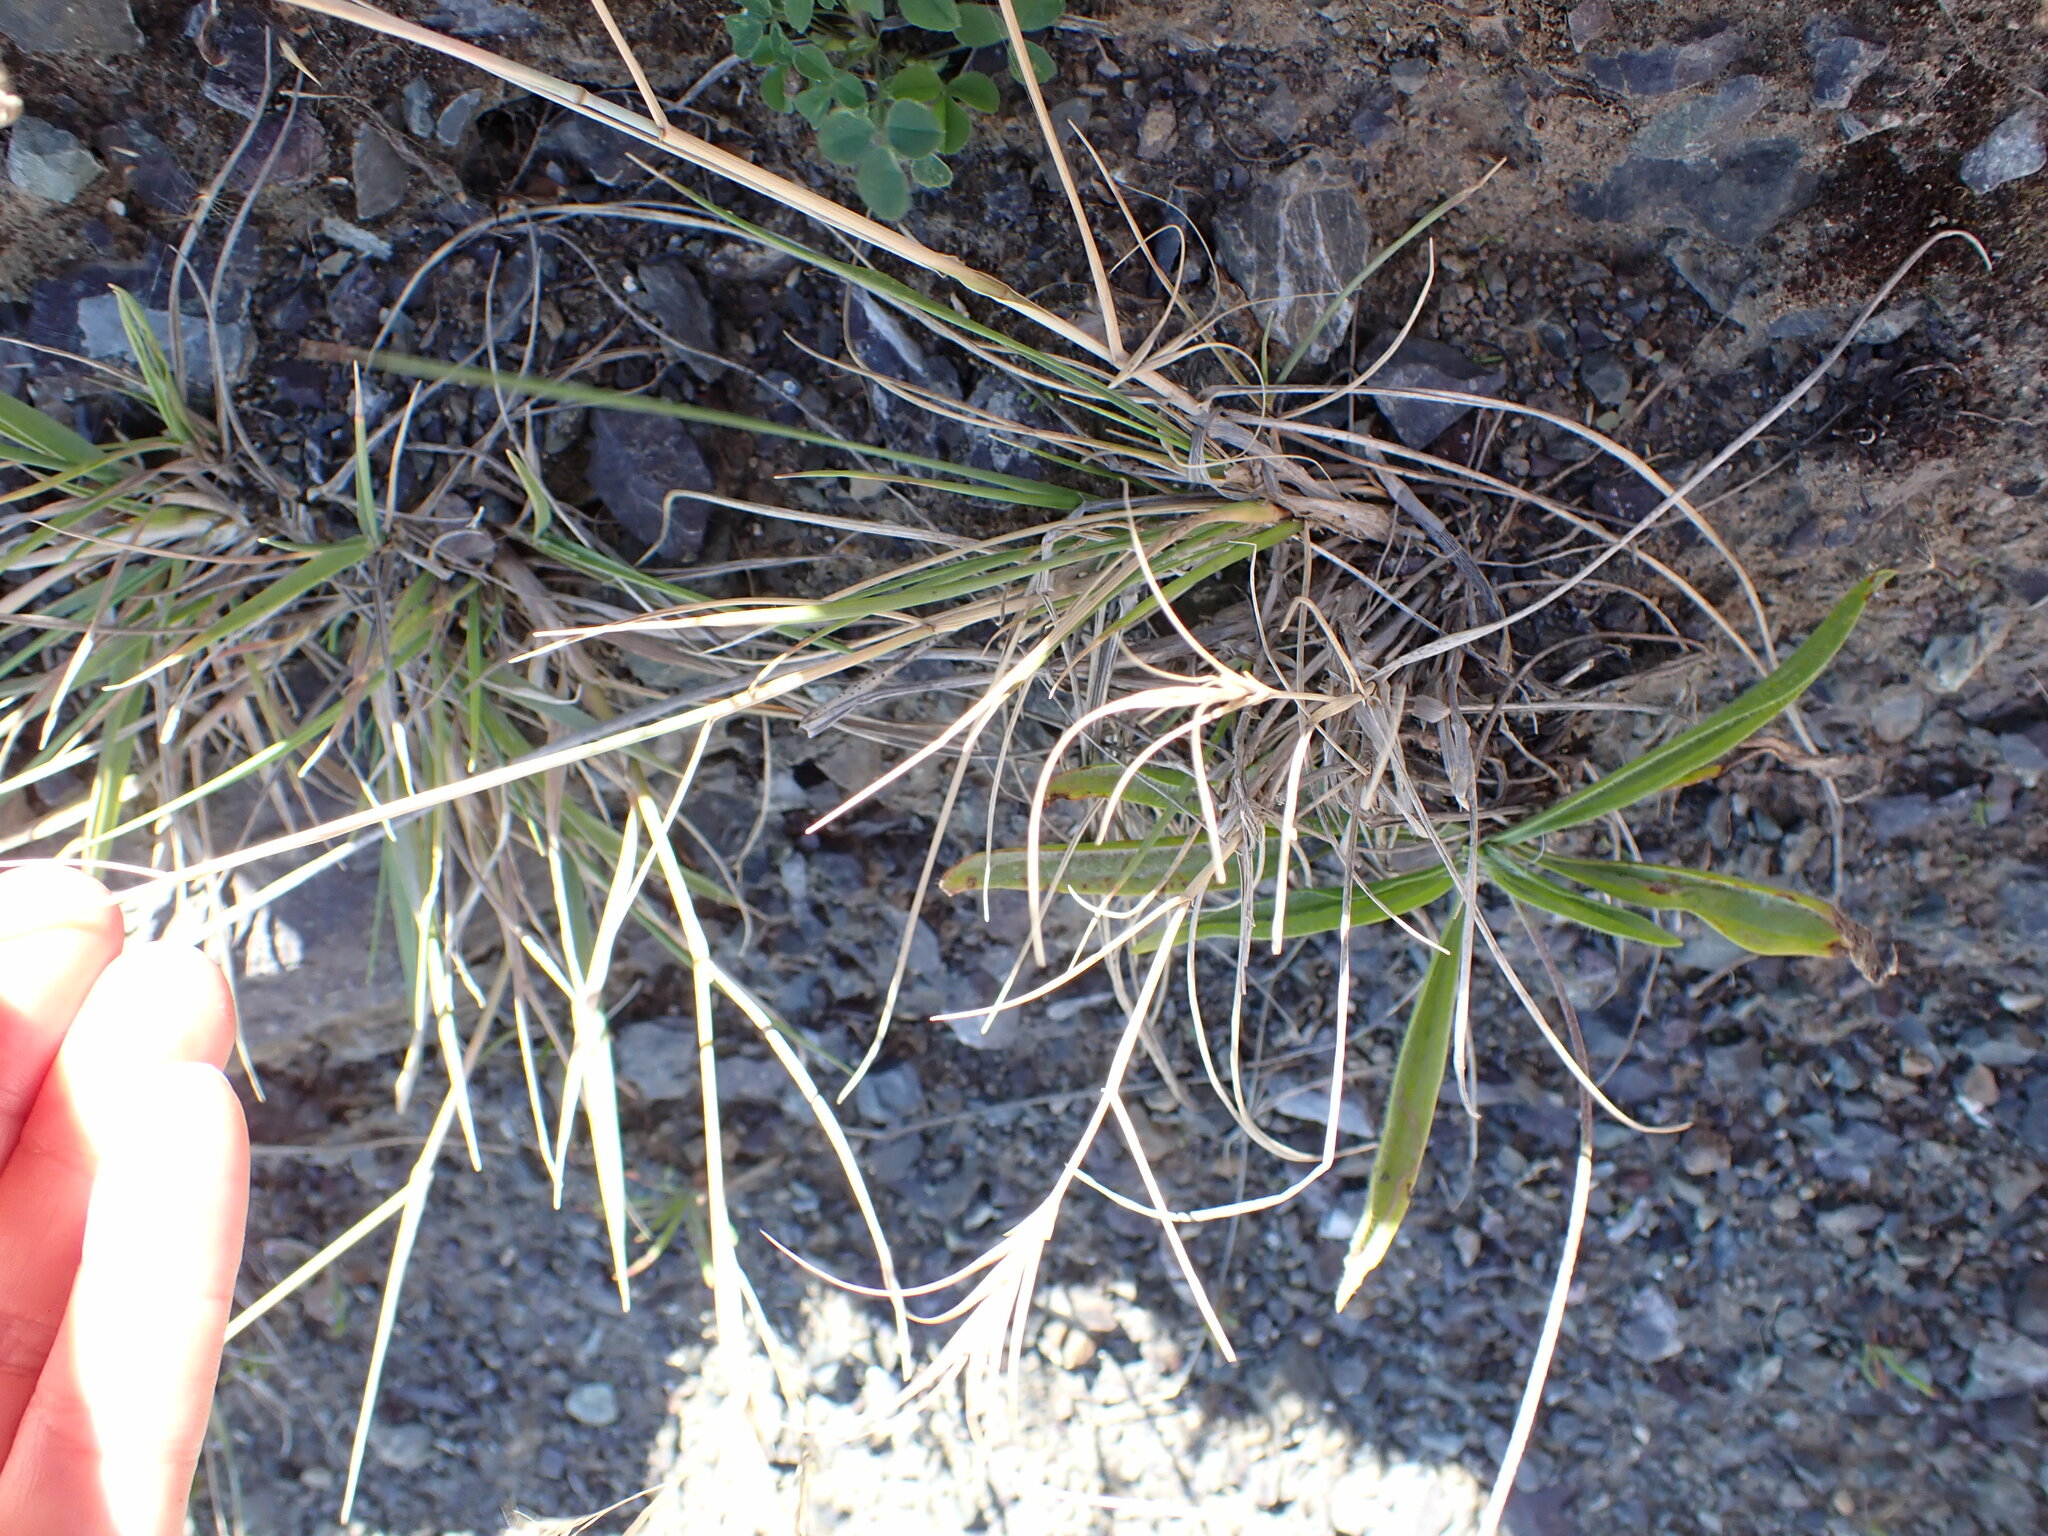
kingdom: Plantae
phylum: Tracheophyta
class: Liliopsida
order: Poales
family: Poaceae
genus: Spinifex
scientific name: Spinifex sericeus
